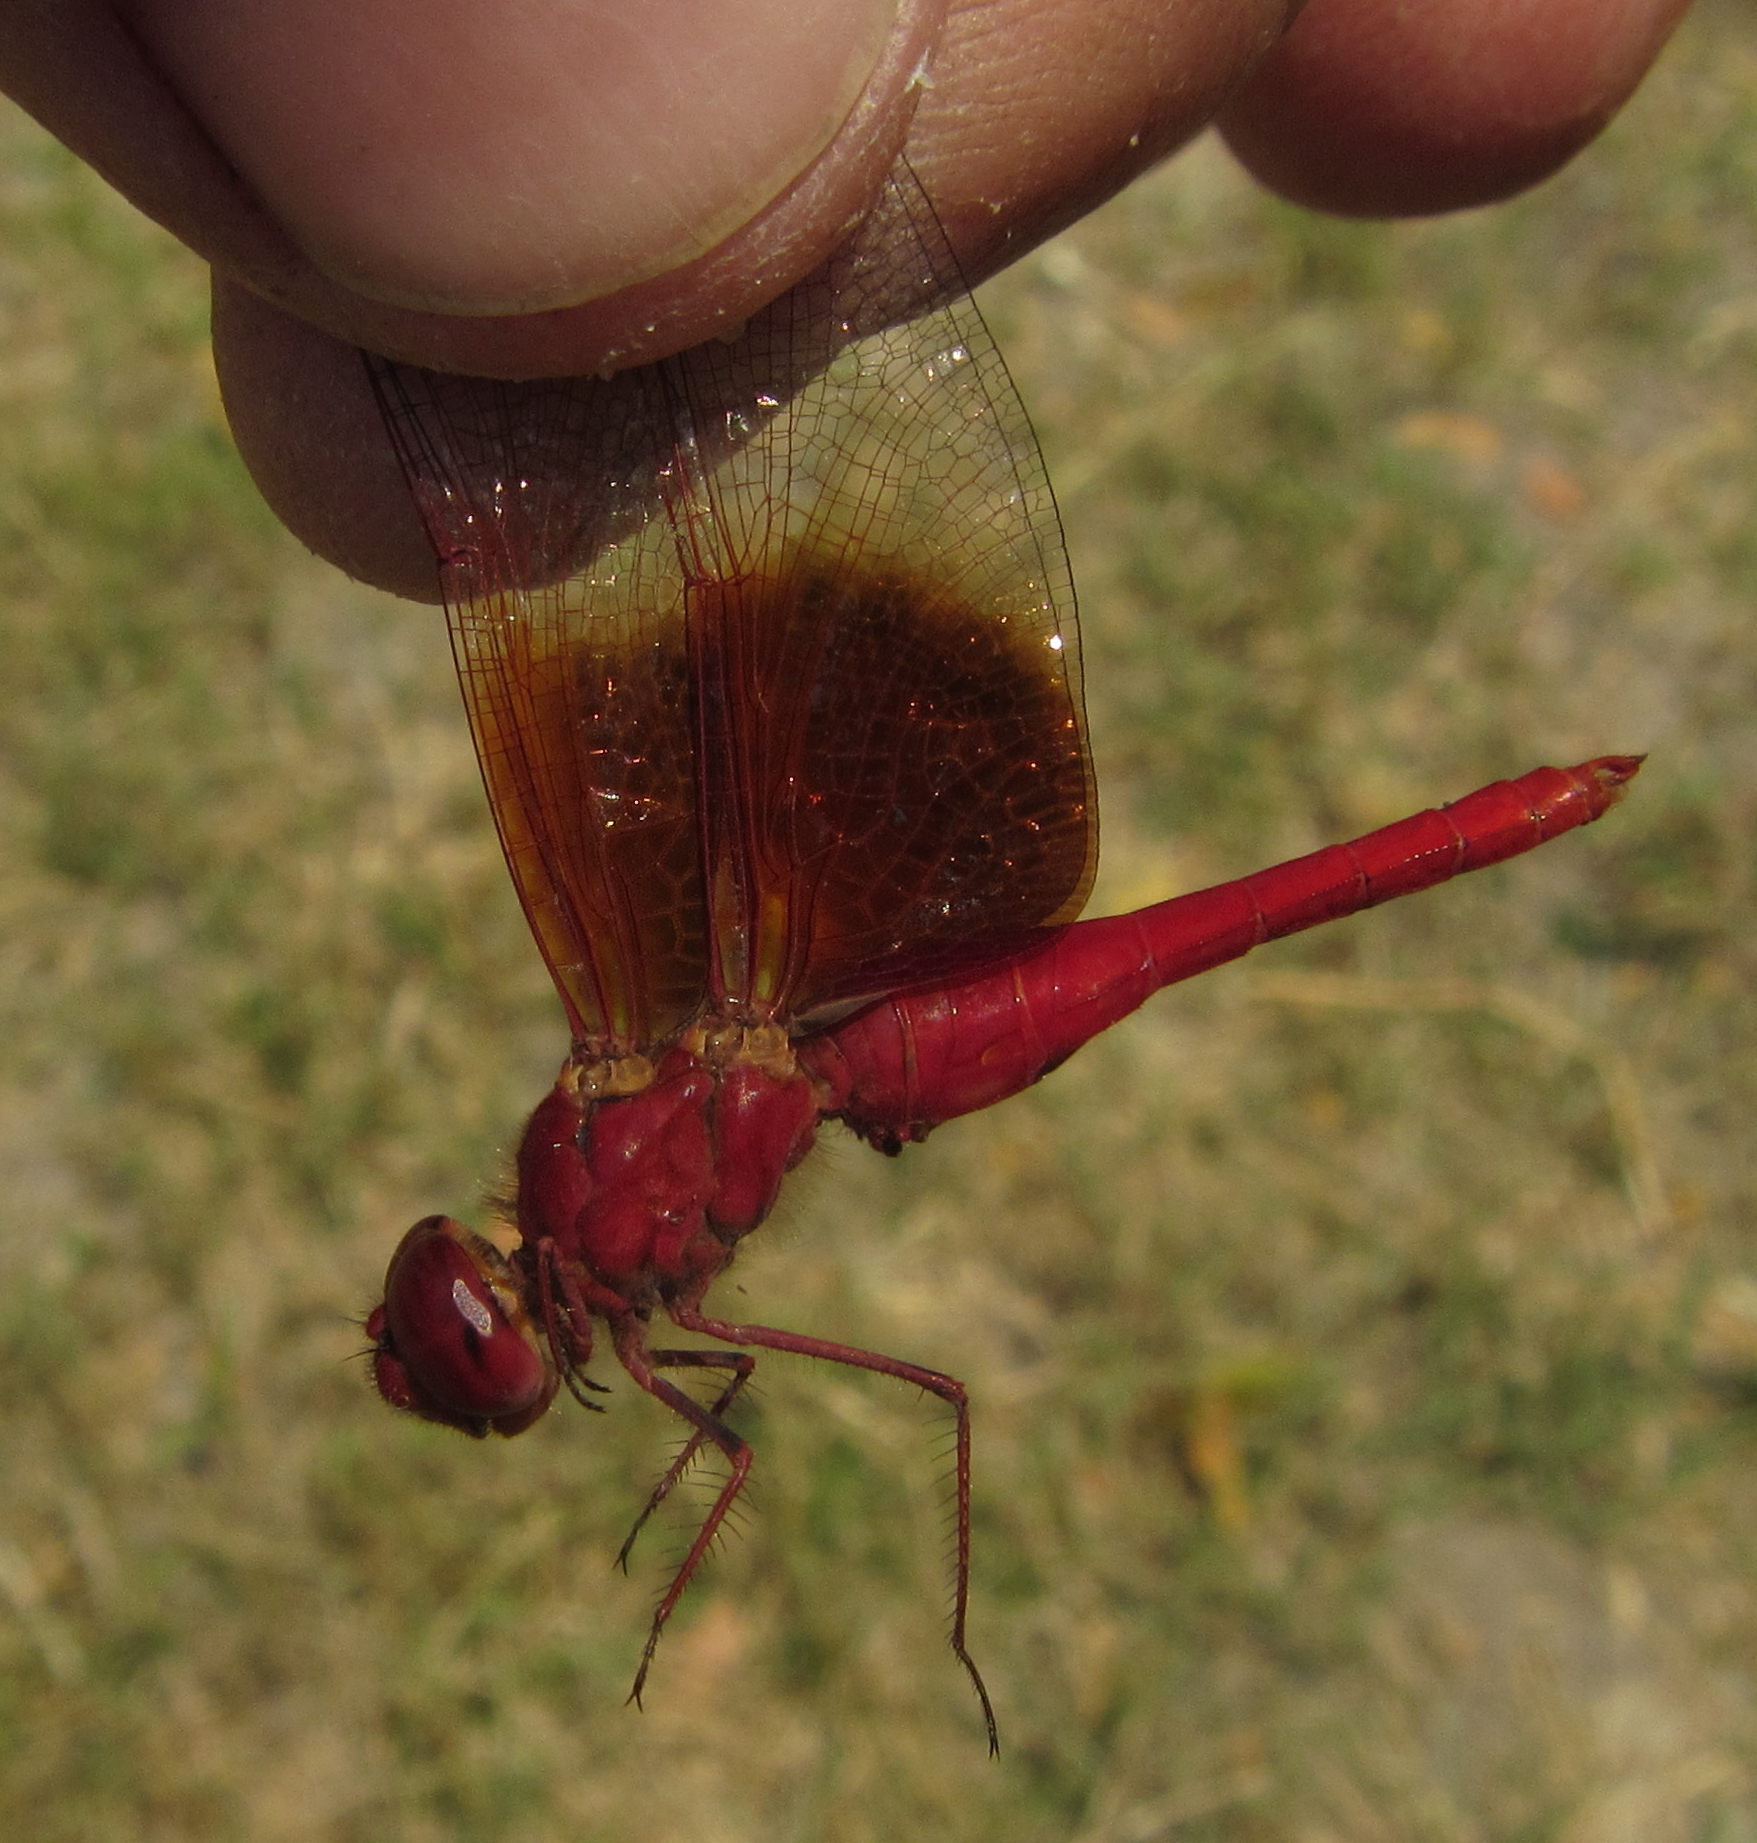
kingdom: Animalia
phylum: Arthropoda
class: Insecta
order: Odonata
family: Libellulidae
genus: Brachythemis
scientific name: Brachythemis lacustris
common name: Red groundling
